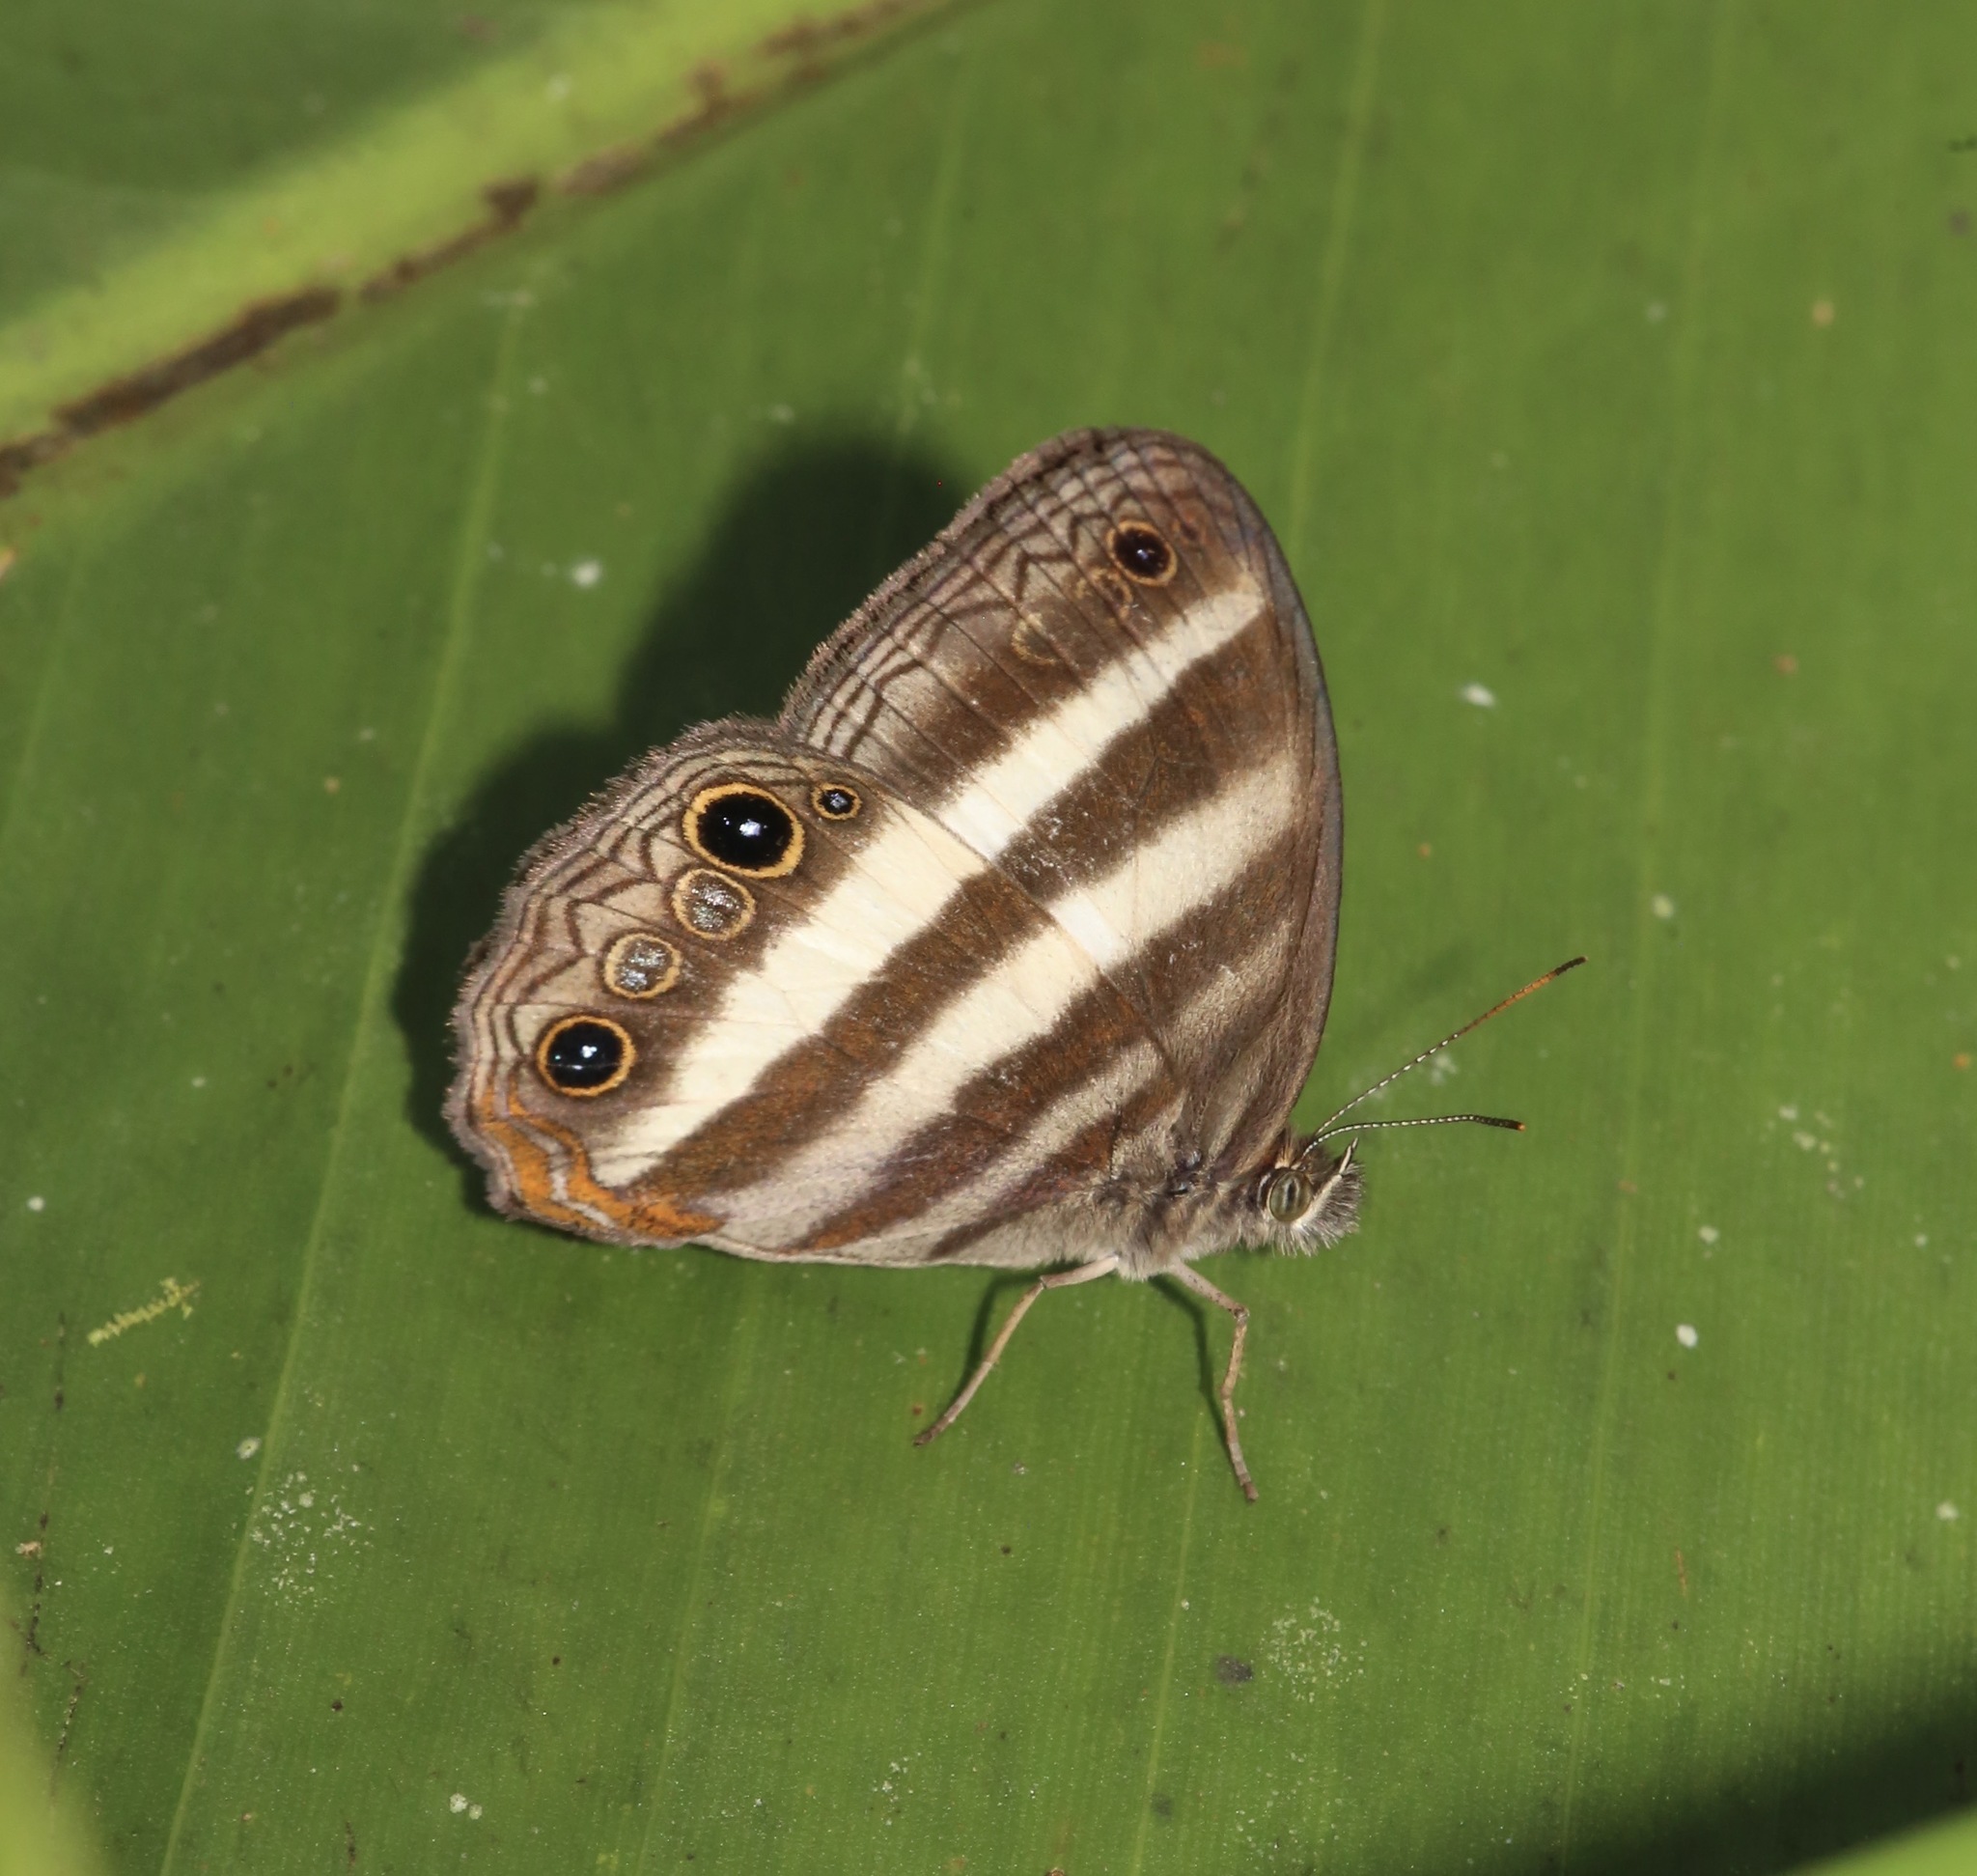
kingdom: Animalia
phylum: Arthropoda
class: Insecta
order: Lepidoptera
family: Nymphalidae
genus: Pareuptychia
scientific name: Pareuptychia hesione
